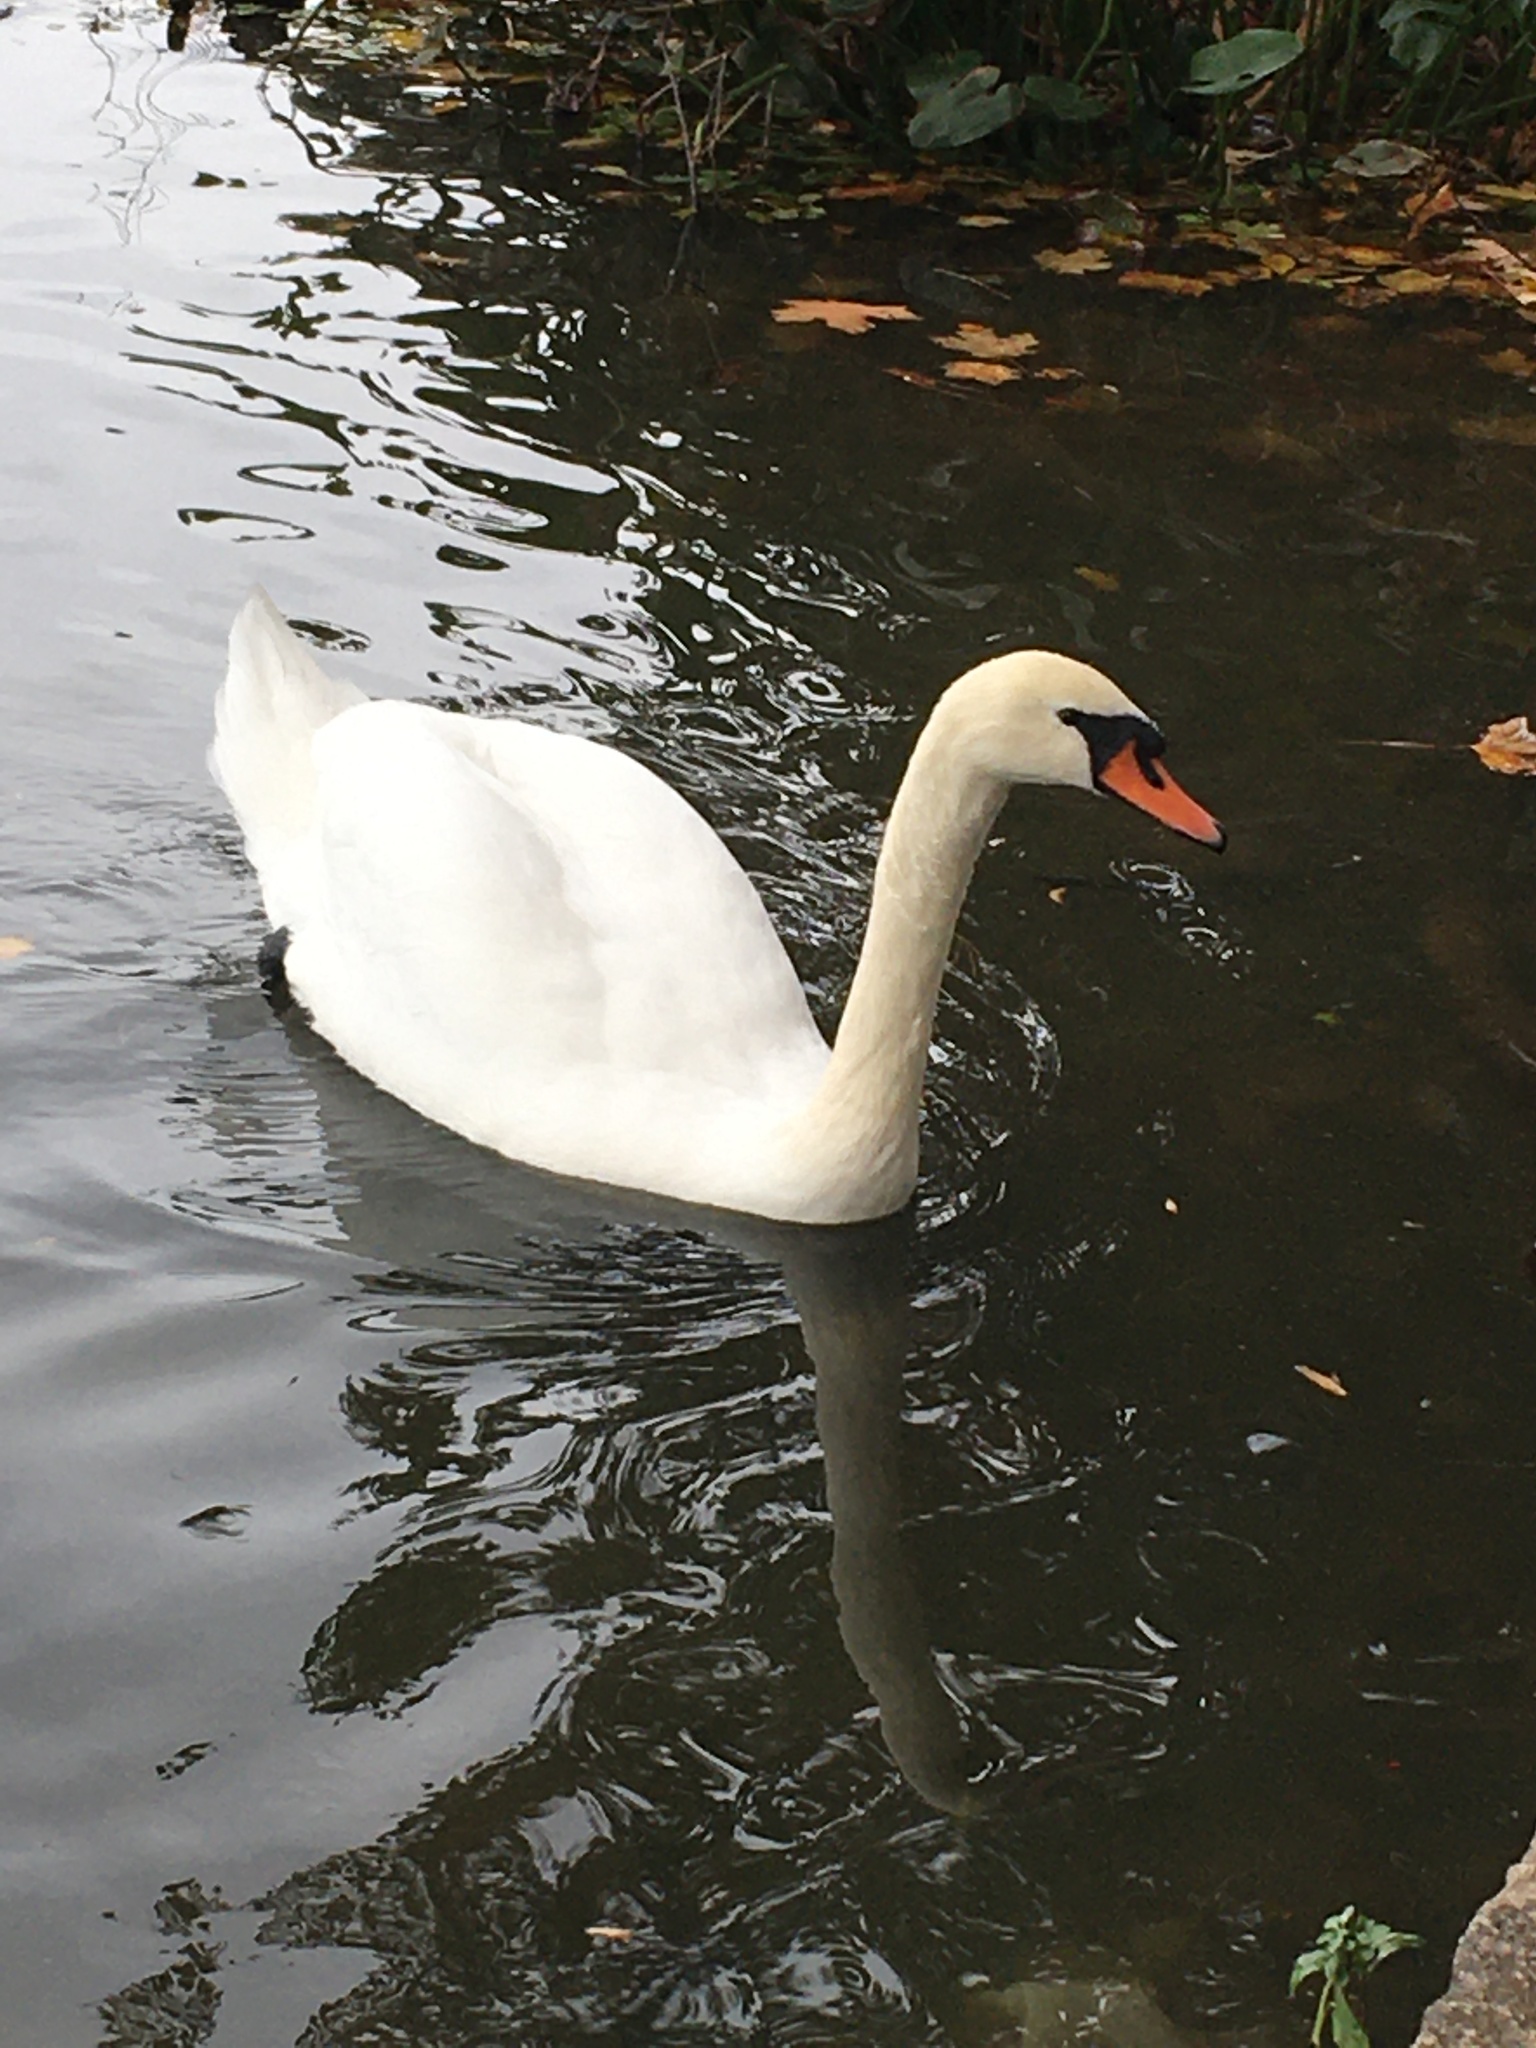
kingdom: Animalia
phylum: Chordata
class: Aves
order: Anseriformes
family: Anatidae
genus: Cygnus
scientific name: Cygnus olor
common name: Mute swan
